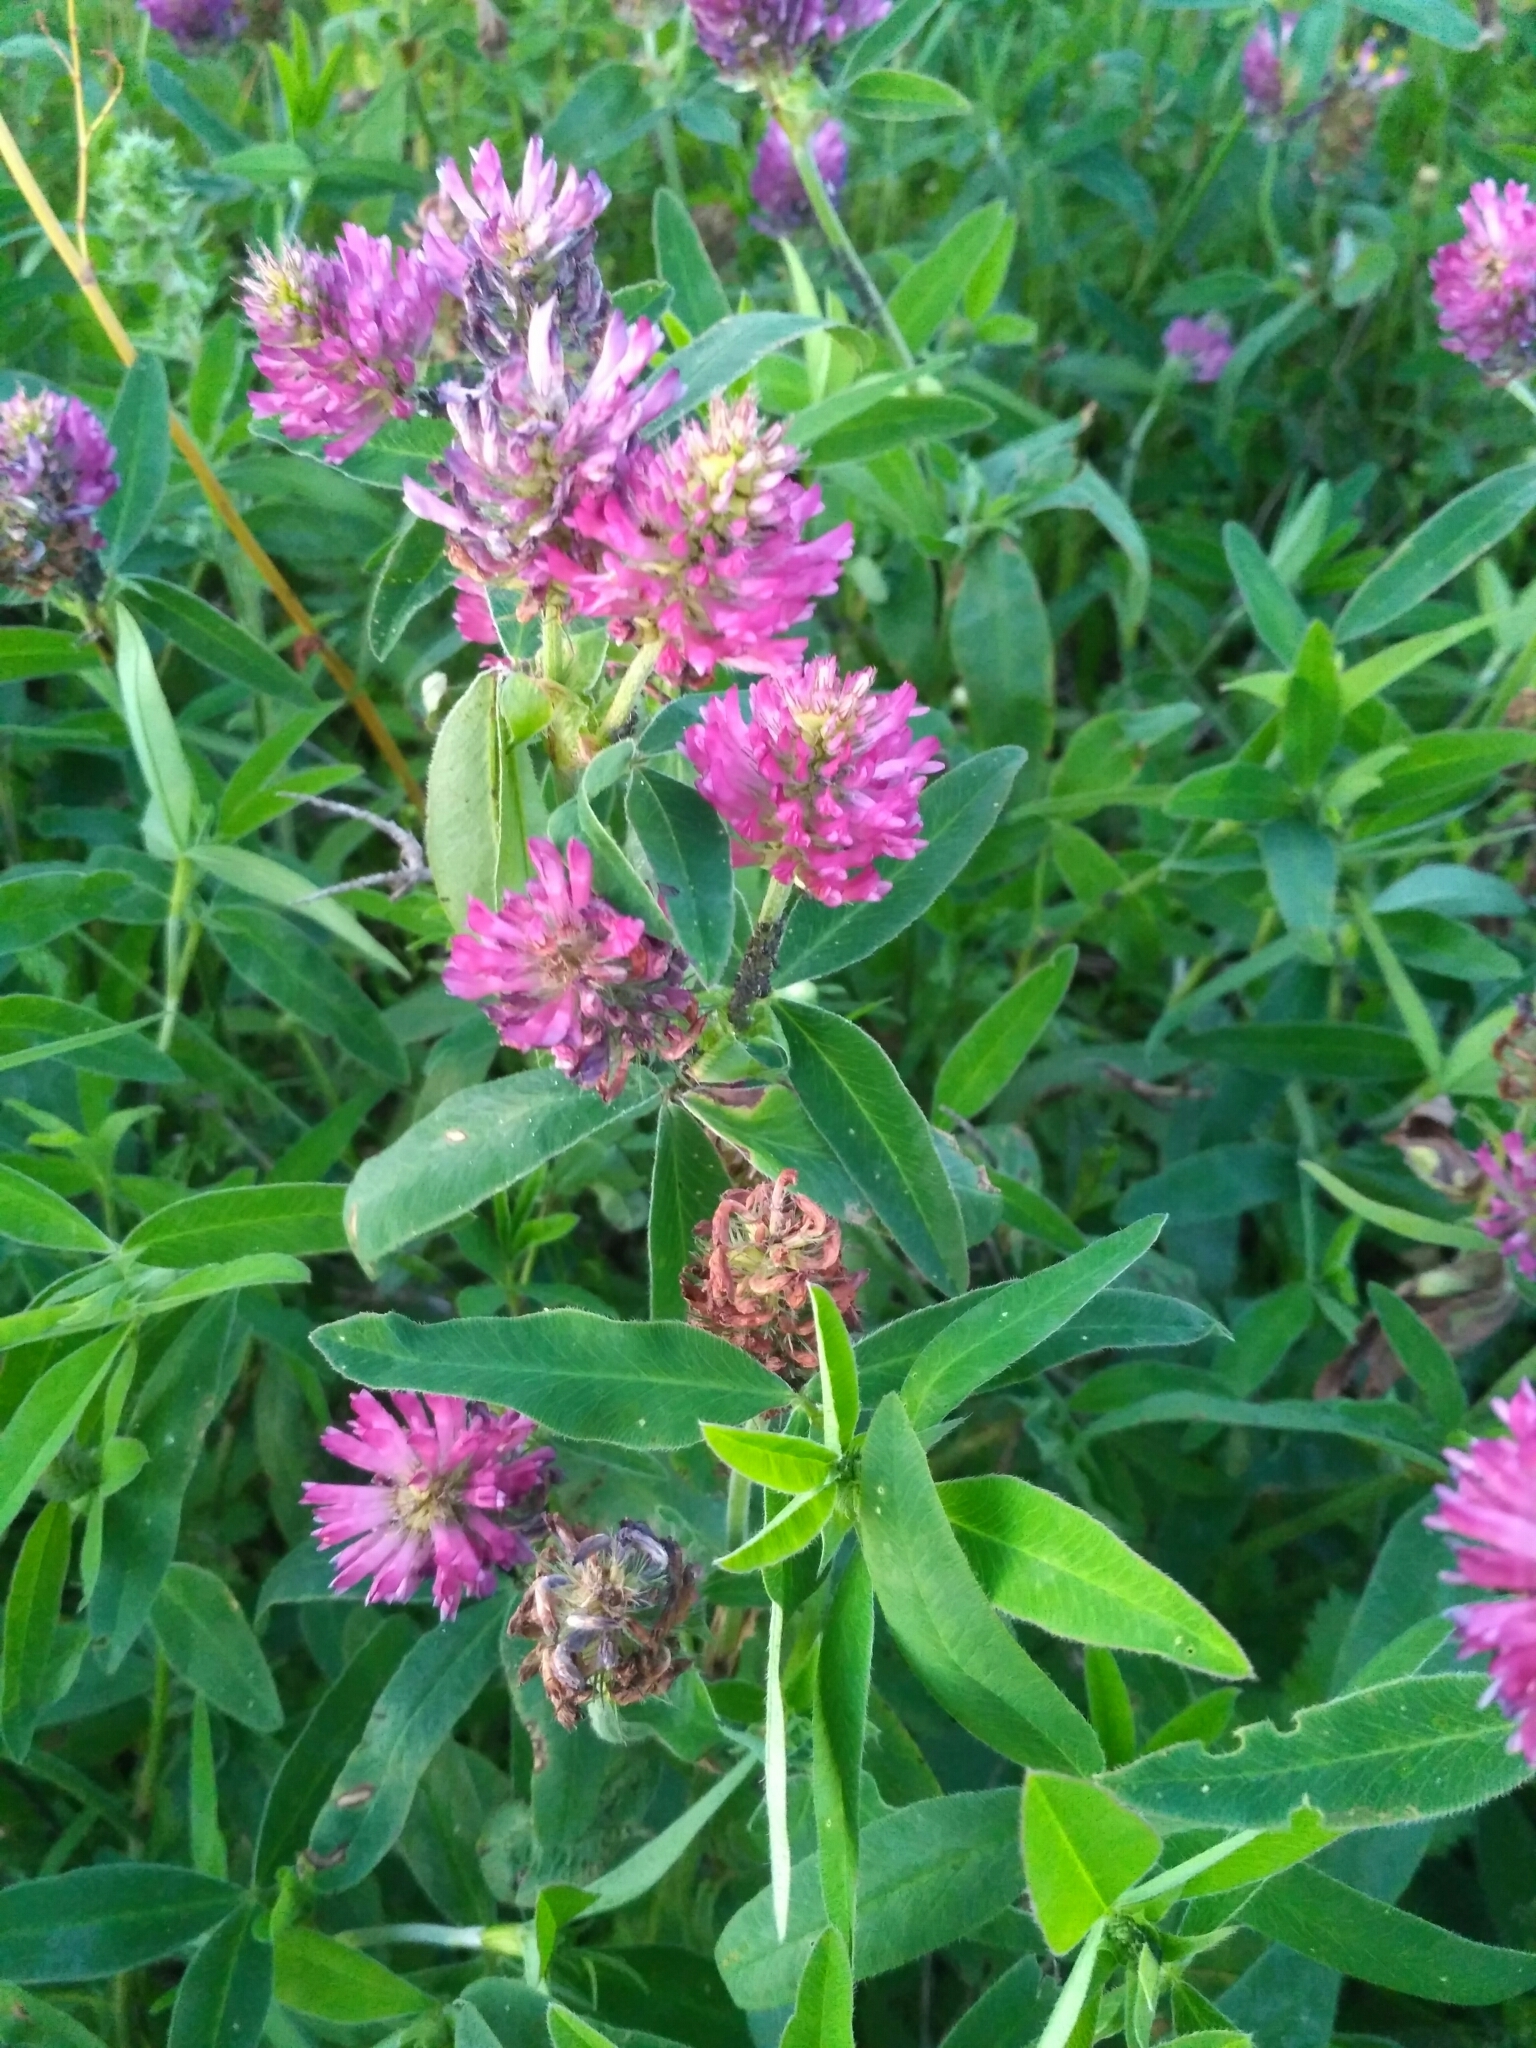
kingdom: Plantae
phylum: Tracheophyta
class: Magnoliopsida
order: Fabales
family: Fabaceae
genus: Trifolium
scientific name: Trifolium medium
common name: Zigzag clover
